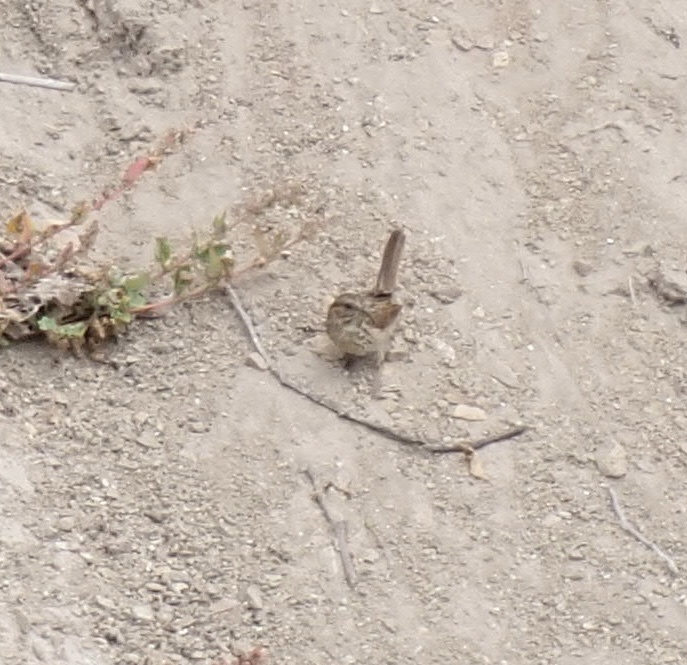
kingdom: Animalia
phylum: Chordata
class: Aves
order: Passeriformes
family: Passerellidae
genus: Melospiza
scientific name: Melospiza melodia
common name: Song sparrow
